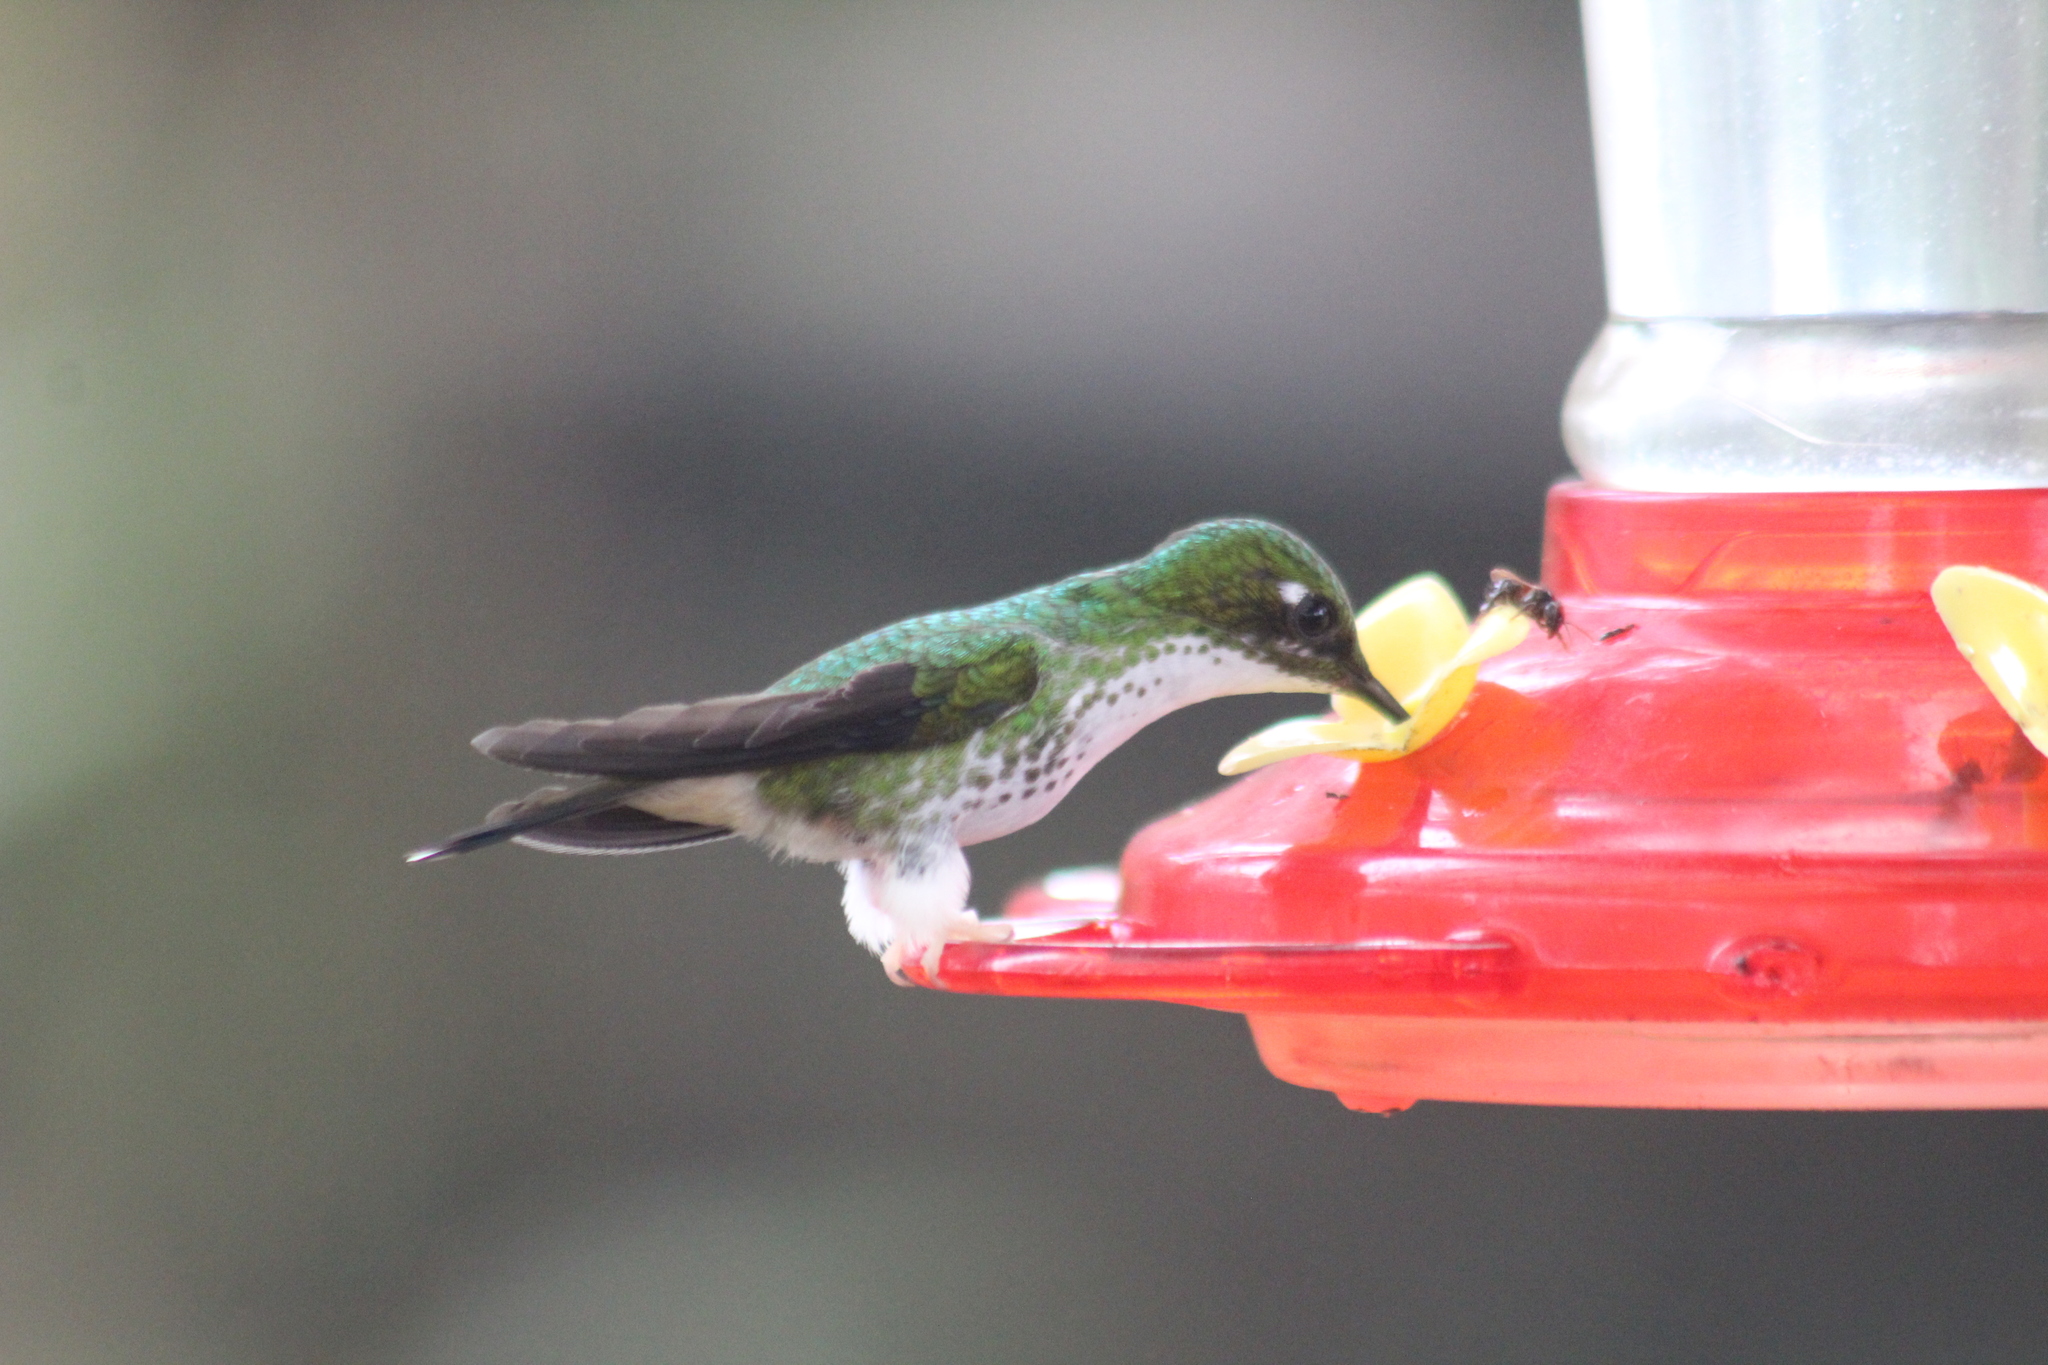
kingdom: Animalia
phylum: Chordata
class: Aves
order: Apodiformes
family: Trochilidae
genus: Ocreatus
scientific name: Ocreatus underwoodii
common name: Booted racket-tail
